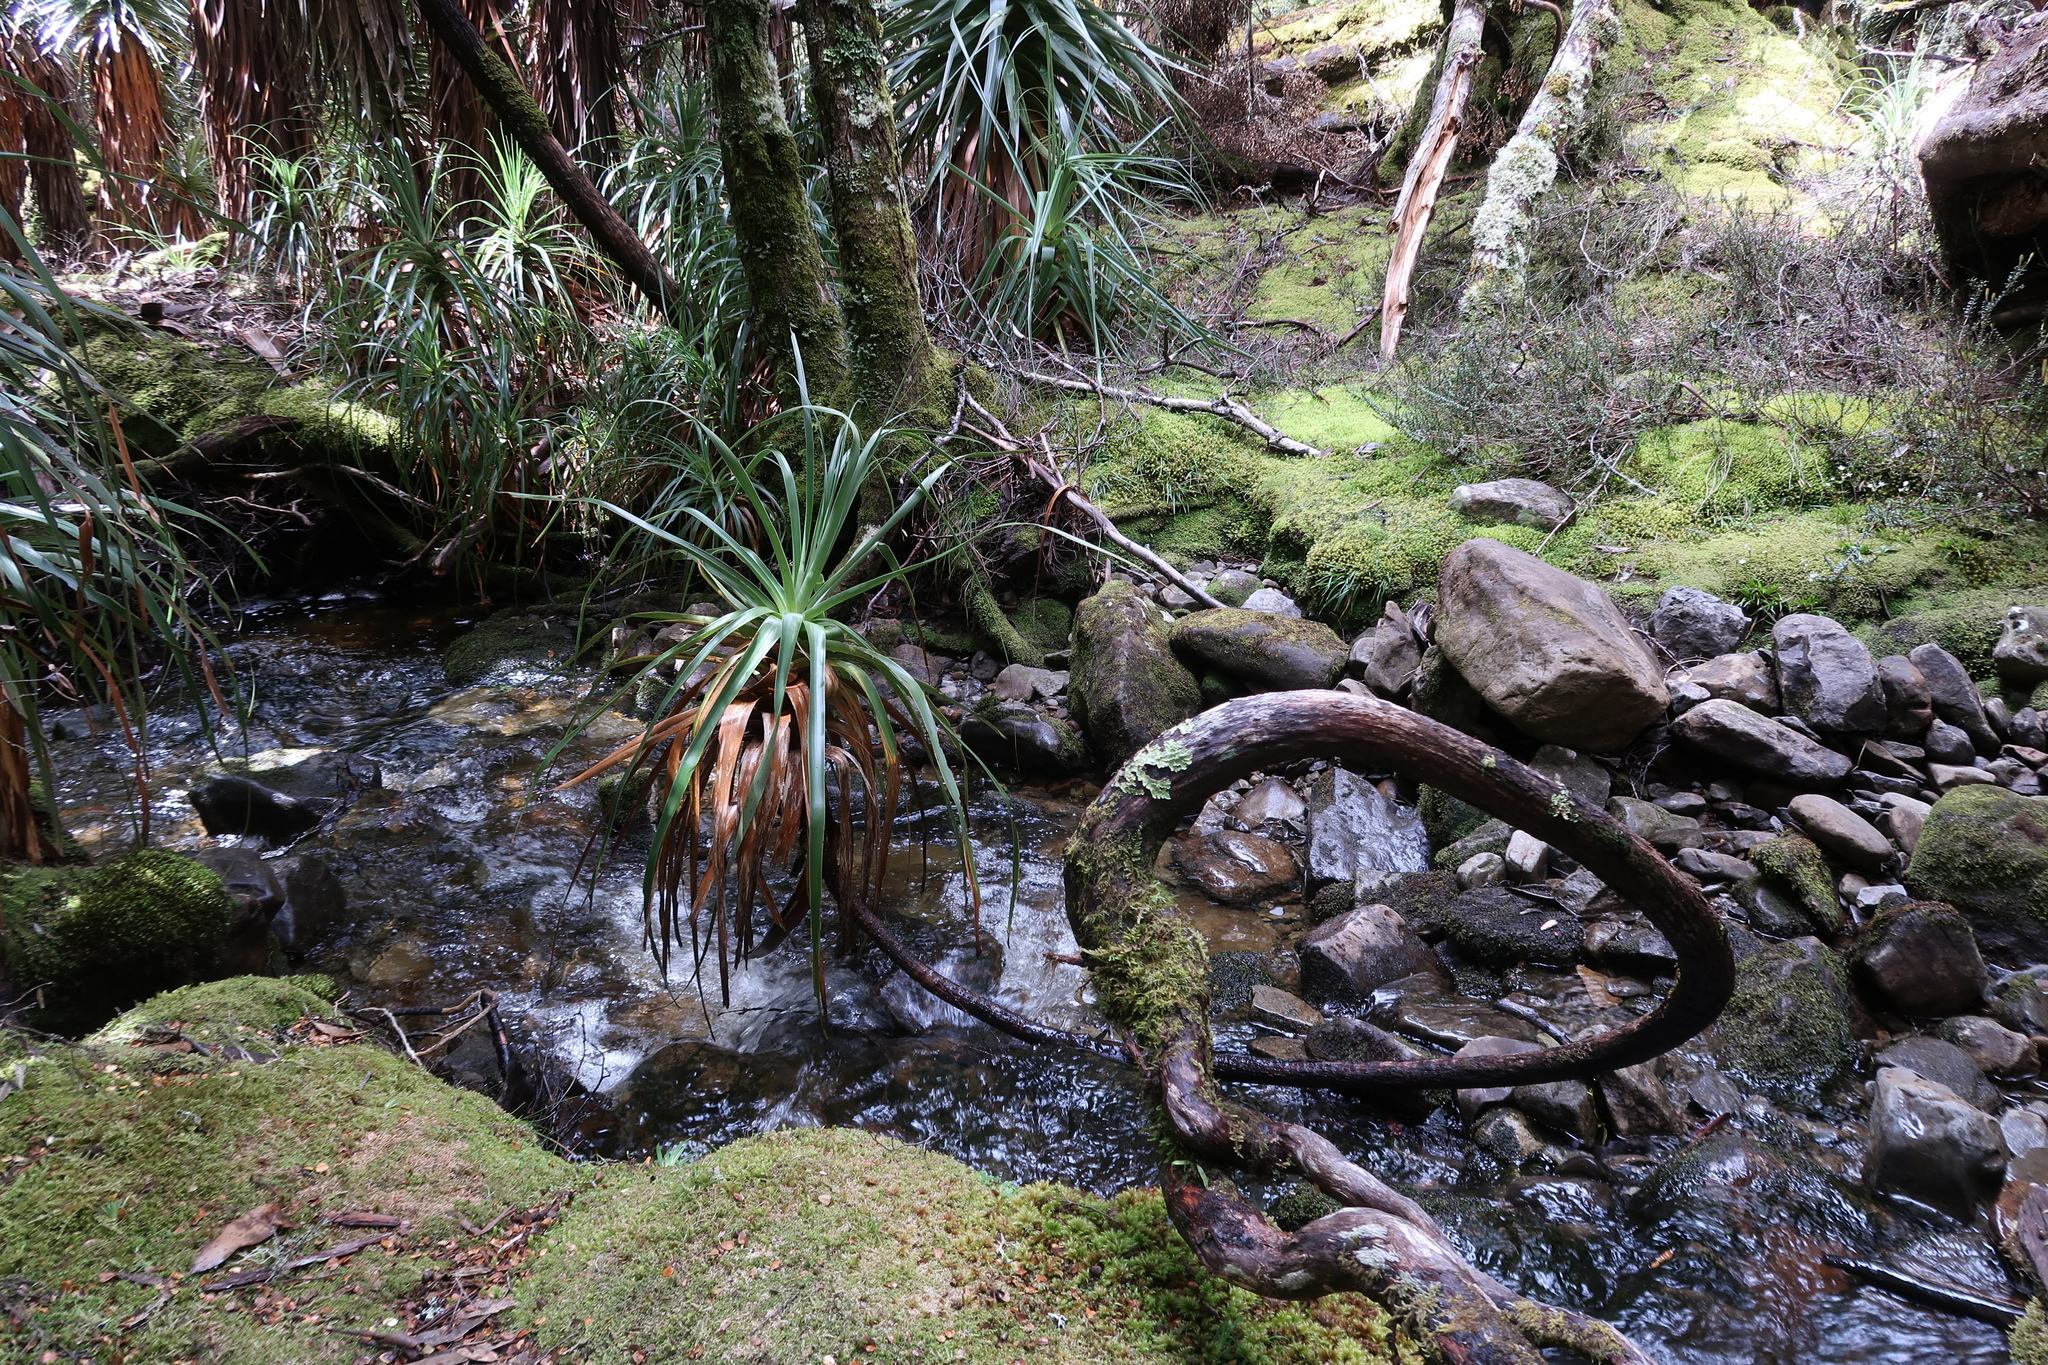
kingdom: Plantae
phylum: Tracheophyta
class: Magnoliopsida
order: Ericales
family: Ericaceae
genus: Dracophyllum
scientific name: Dracophyllum pandanifolium
